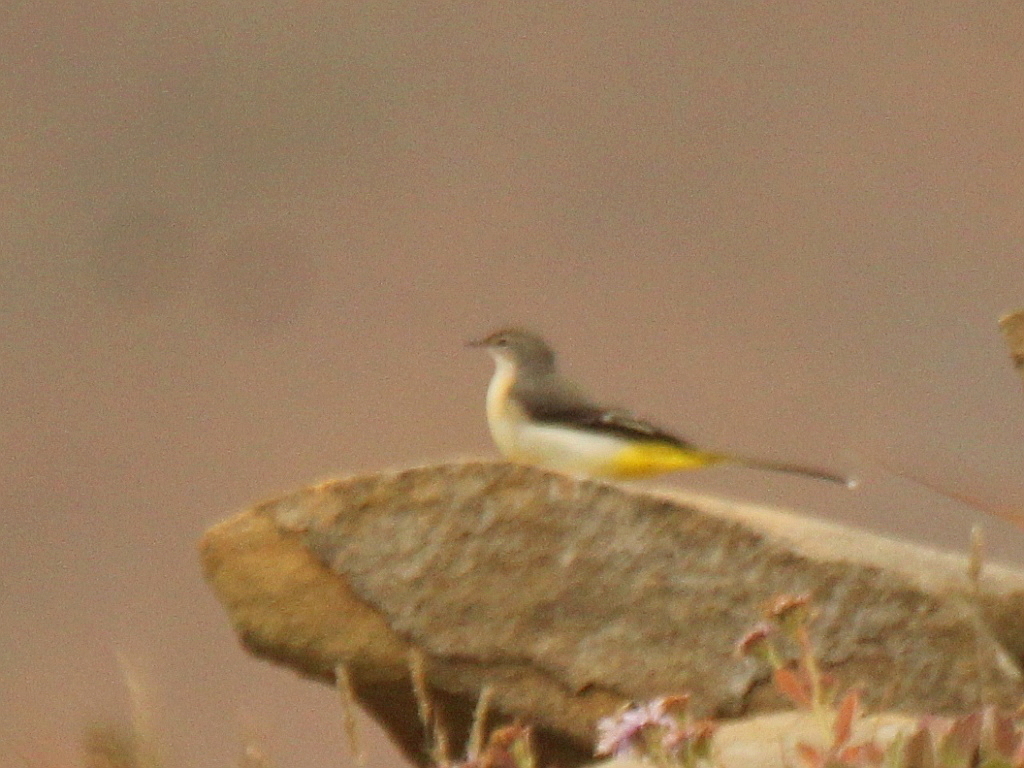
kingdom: Animalia
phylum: Chordata
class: Aves
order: Passeriformes
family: Motacillidae
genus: Motacilla
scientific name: Motacilla cinerea
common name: Grey wagtail
